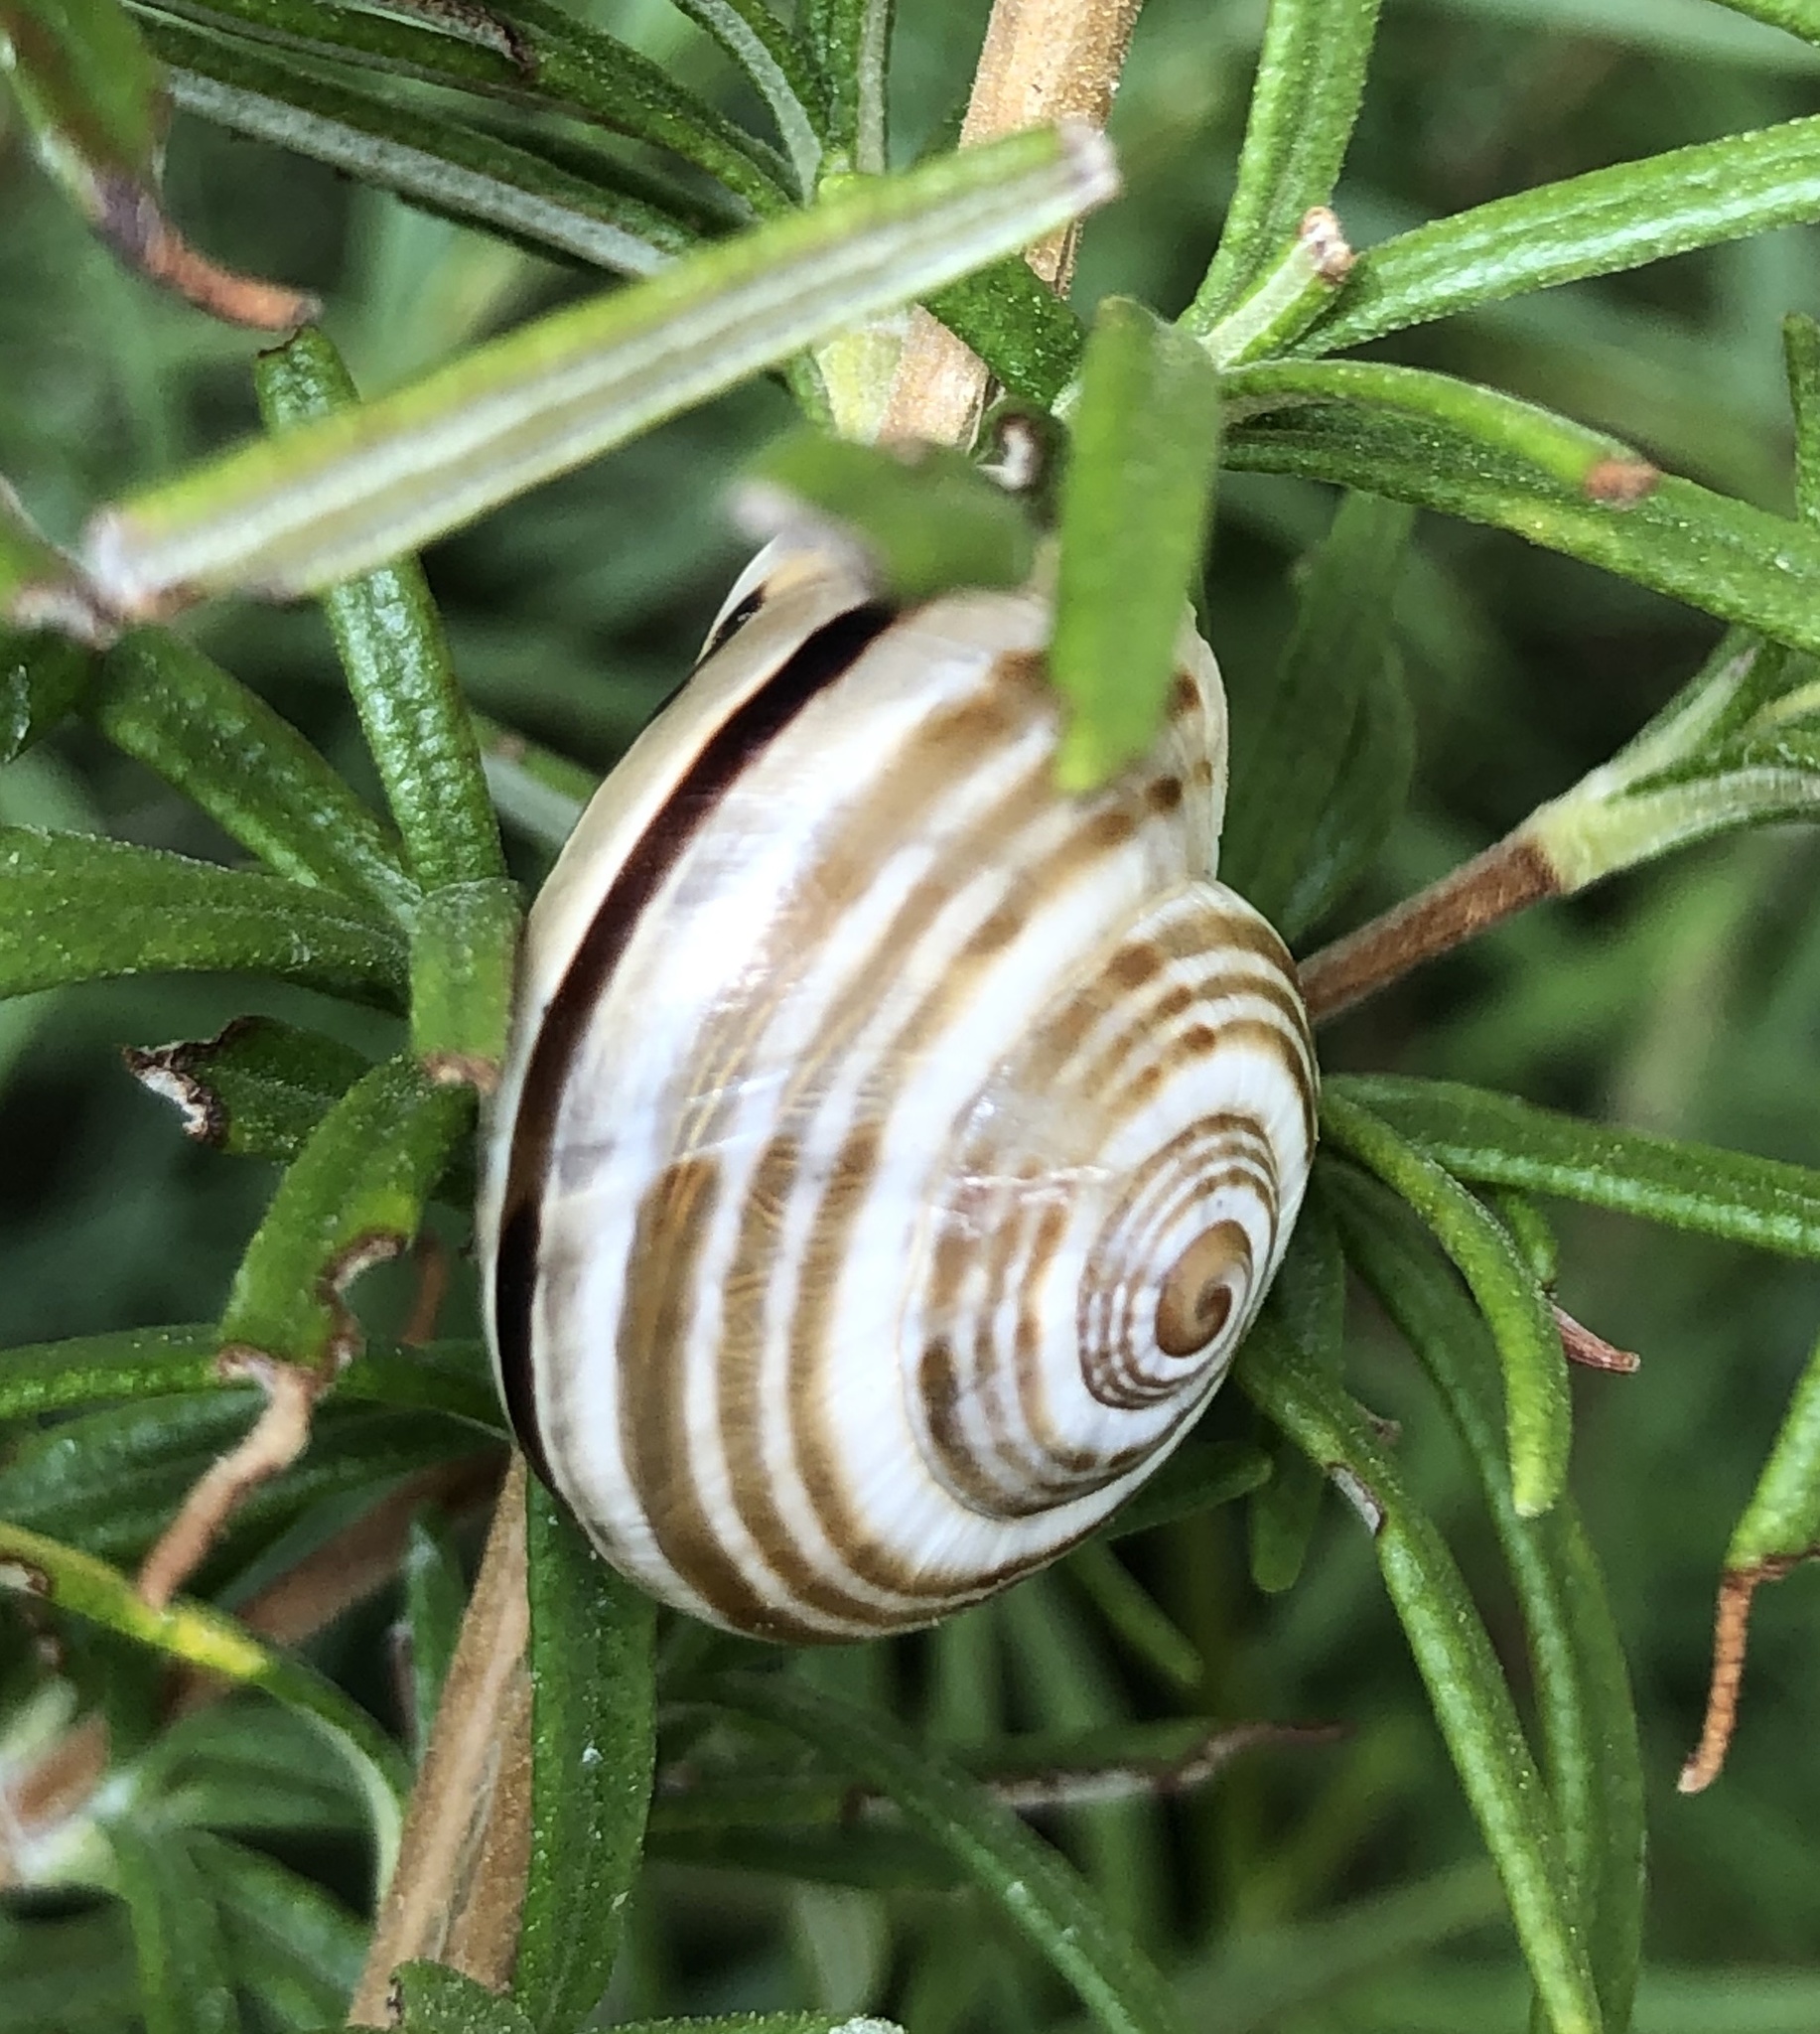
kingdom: Animalia
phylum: Mollusca
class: Gastropoda
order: Stylommatophora
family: Helicidae
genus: Pseudotachea
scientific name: Pseudotachea splendida
